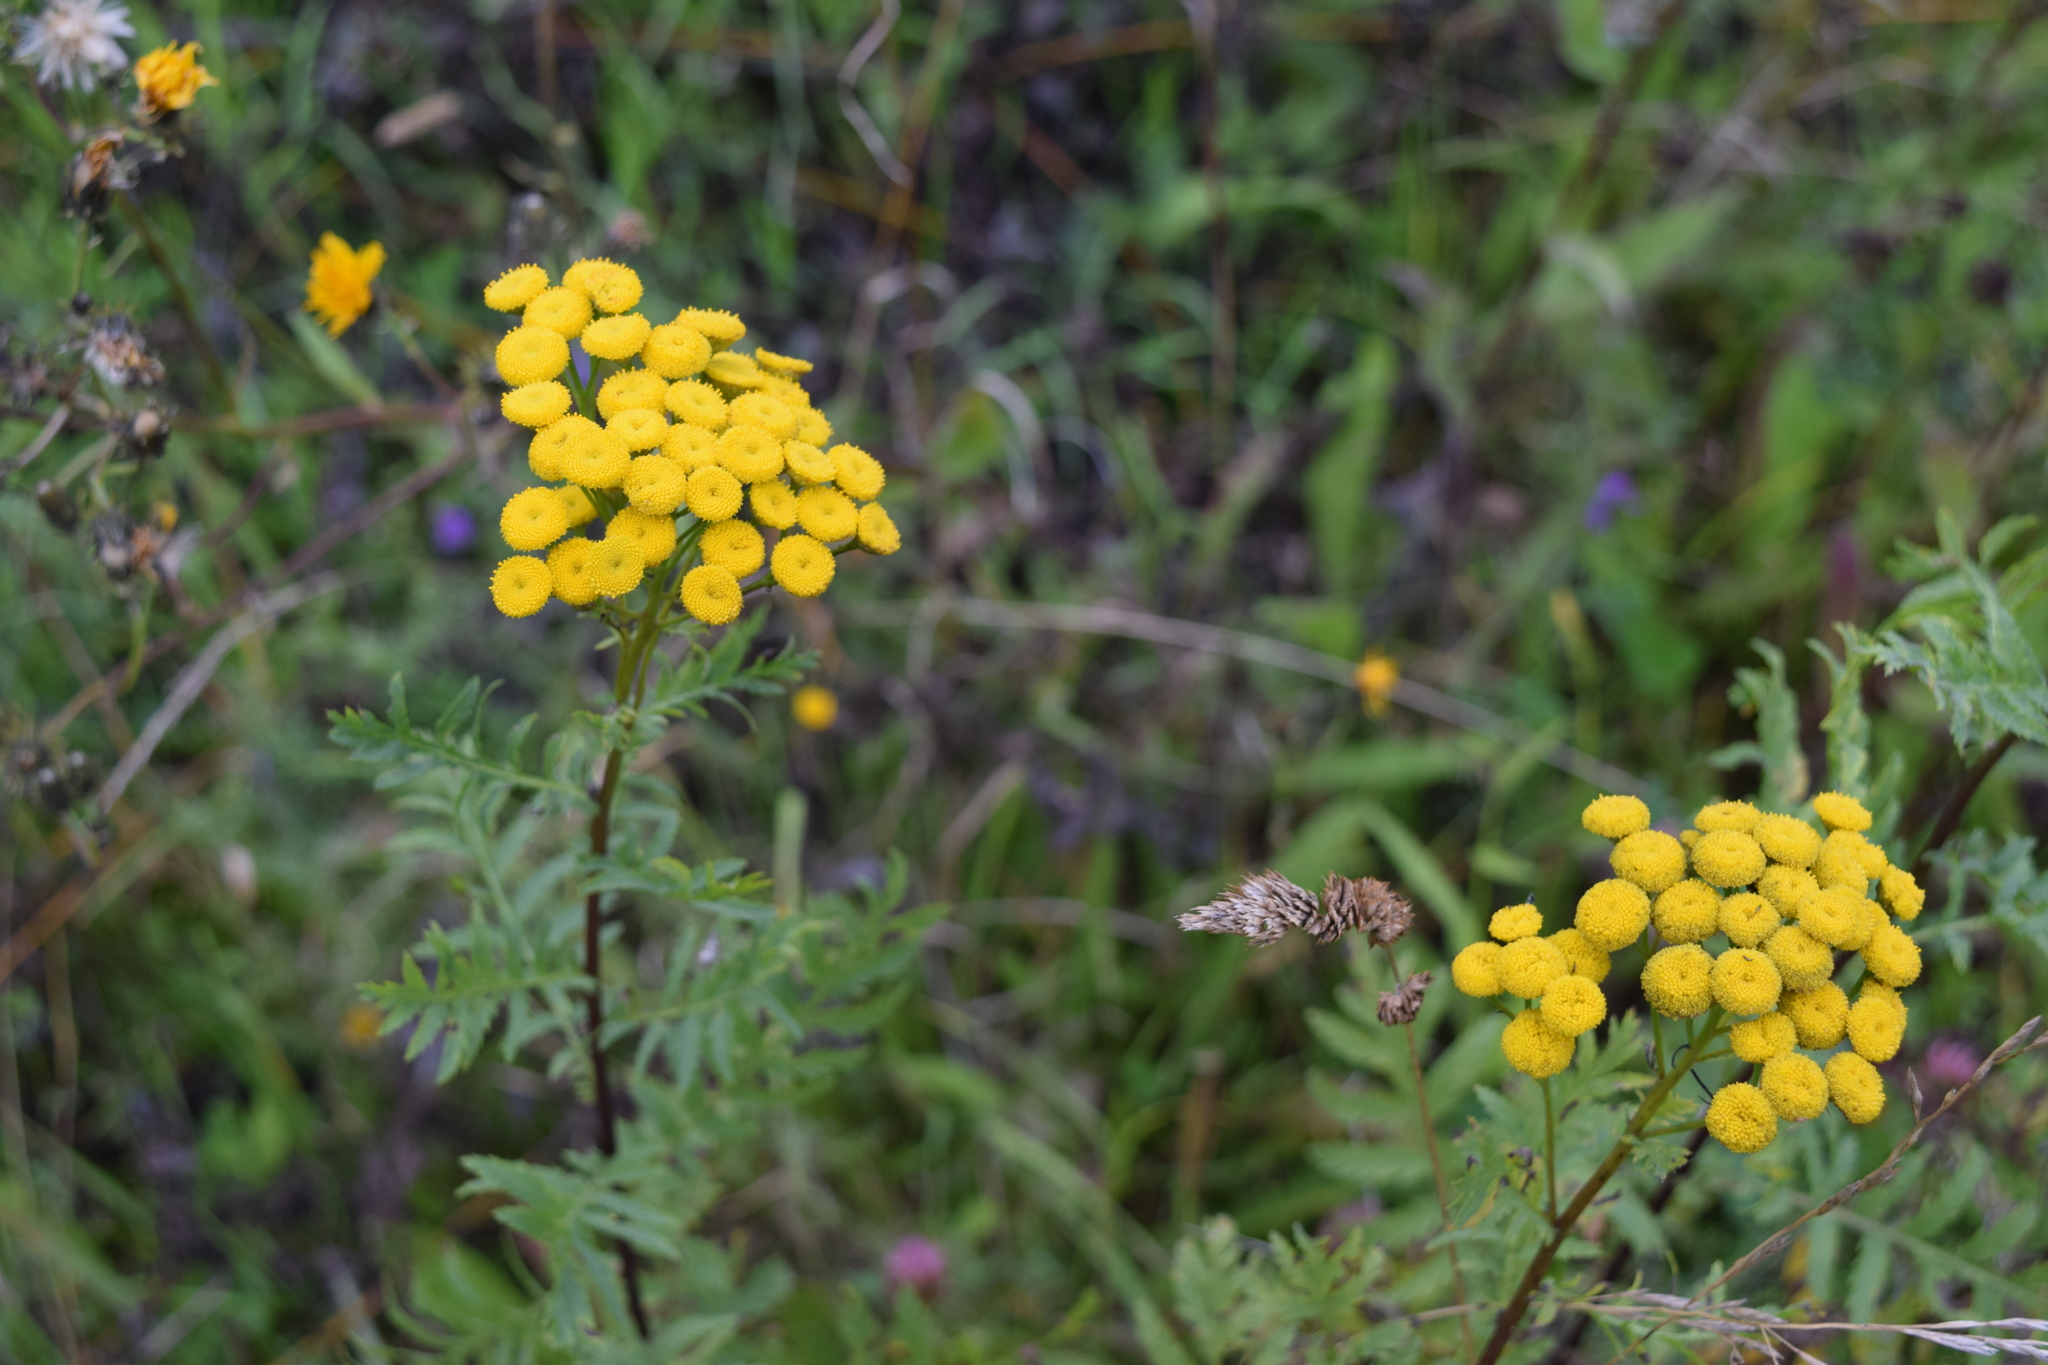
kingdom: Plantae
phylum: Tracheophyta
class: Magnoliopsida
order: Asterales
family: Asteraceae
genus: Tanacetum
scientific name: Tanacetum vulgare
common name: Common tansy
